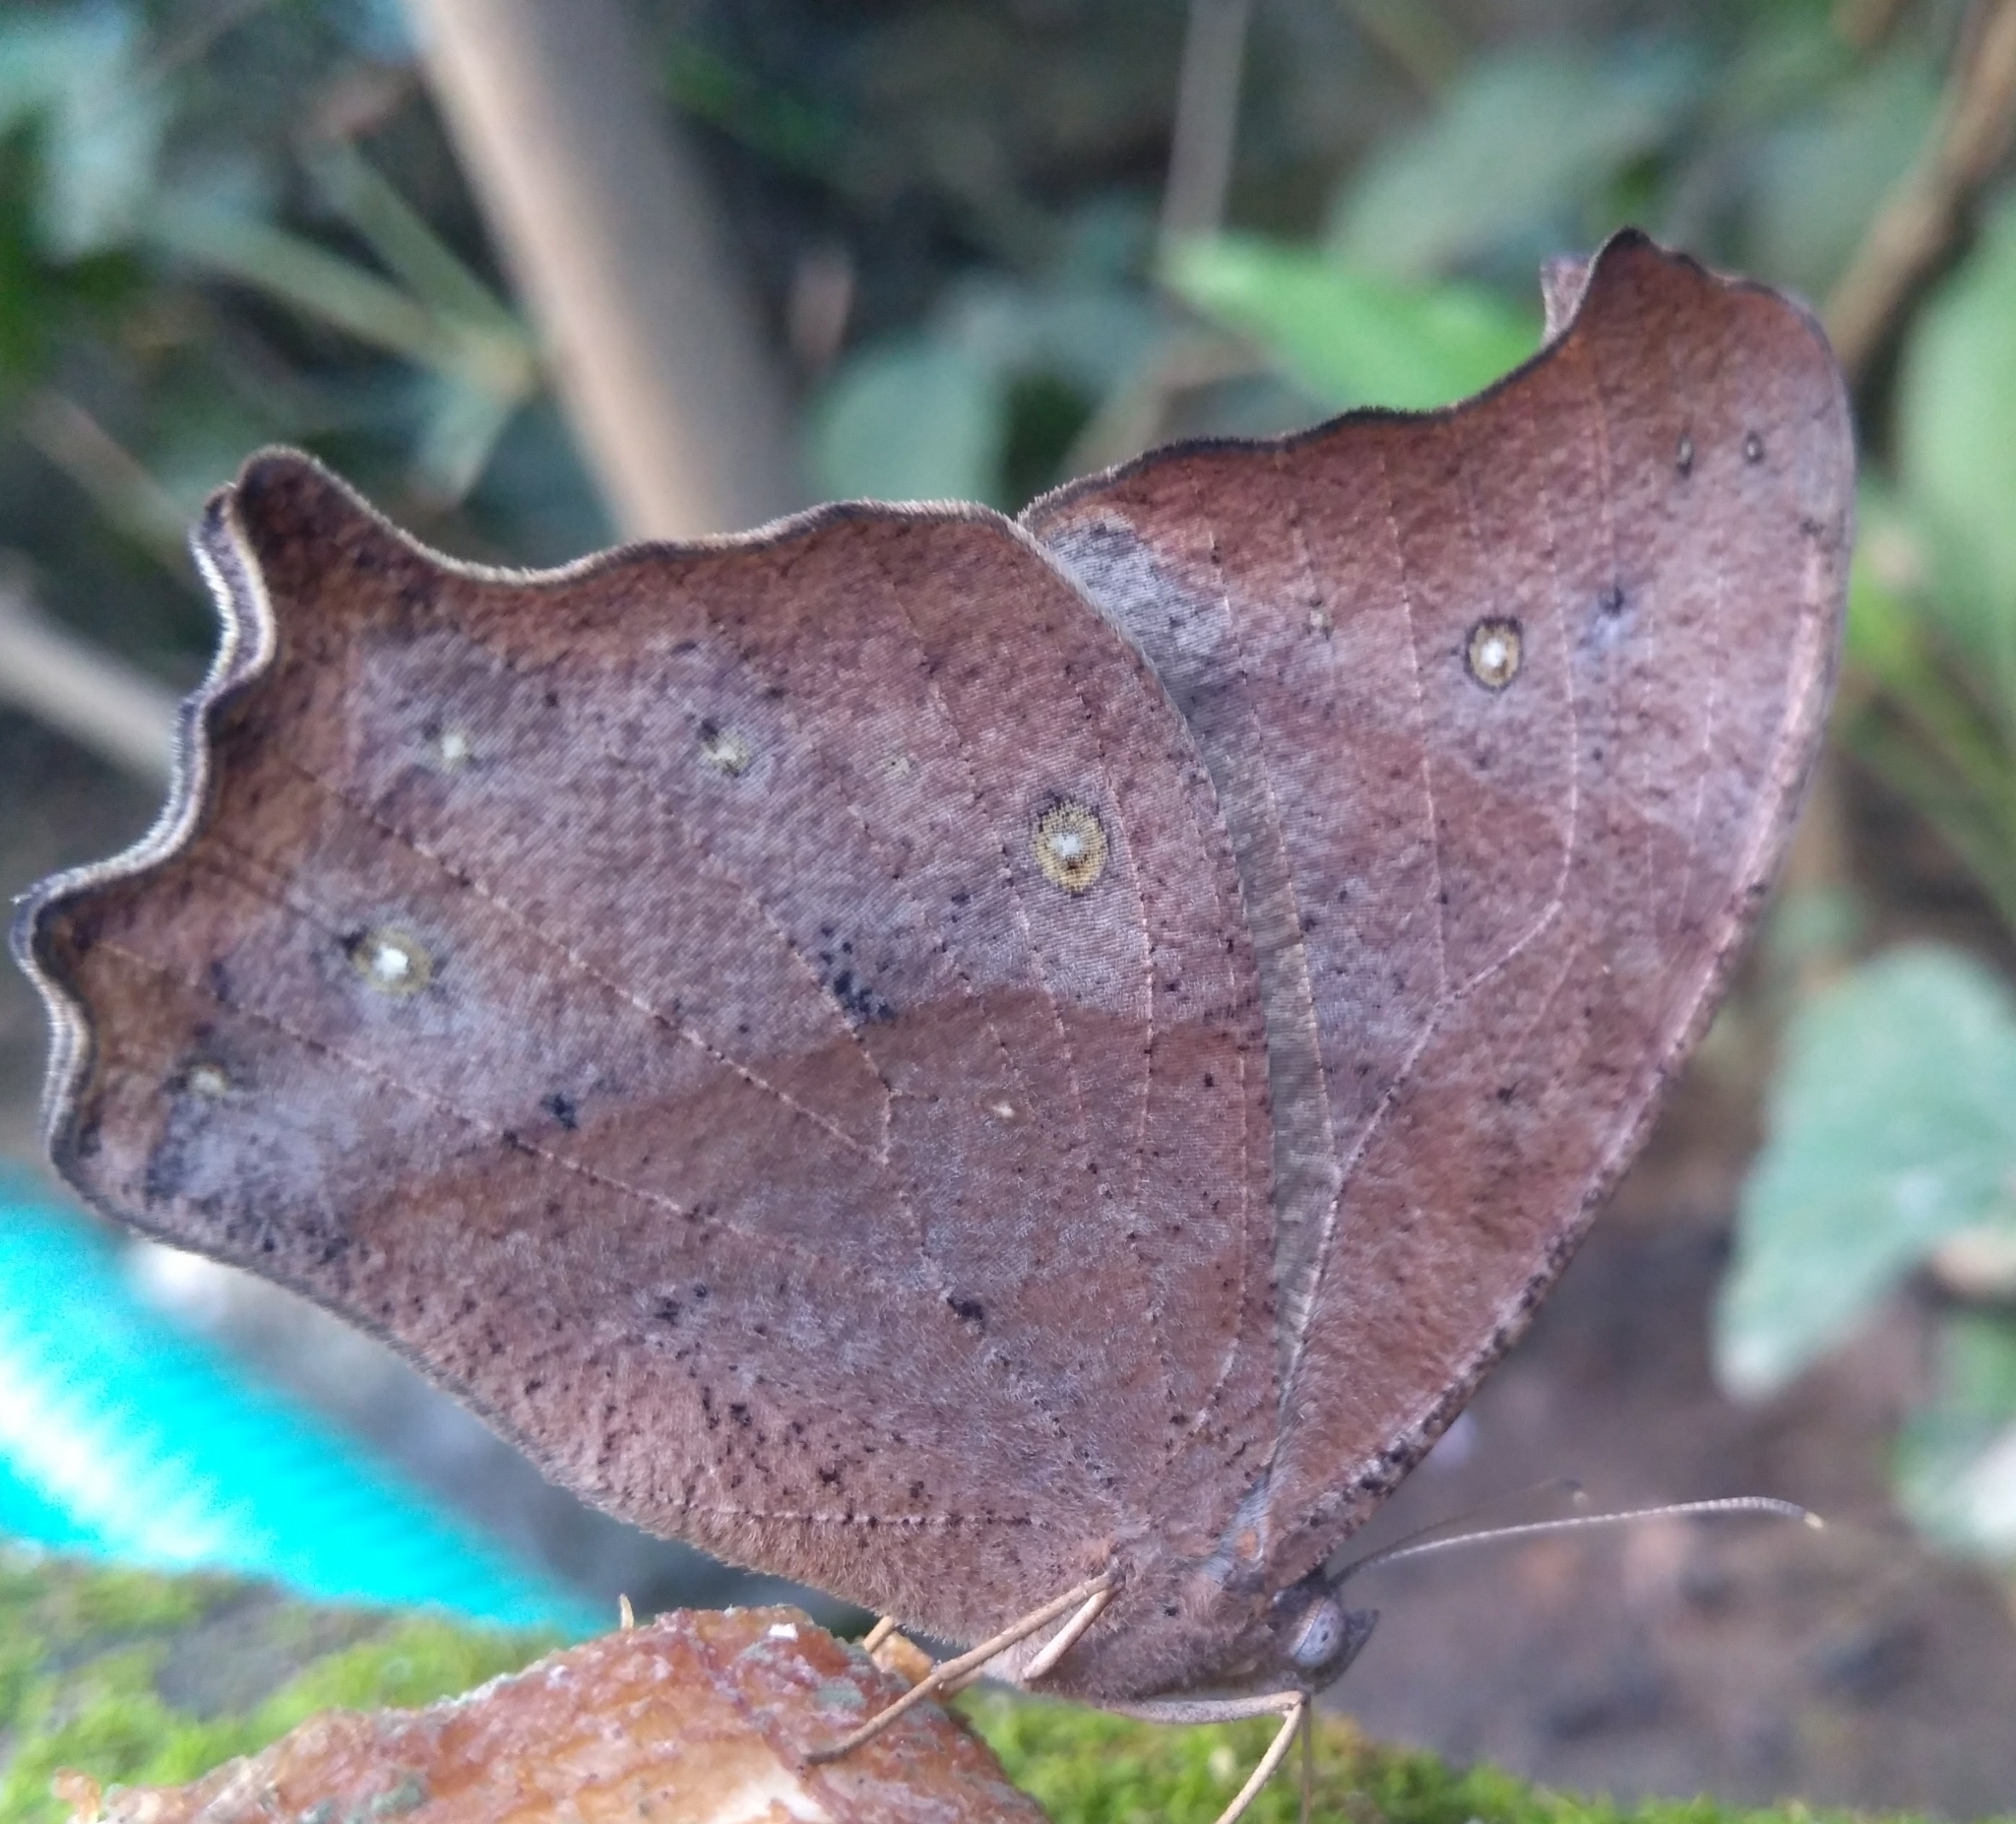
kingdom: Animalia
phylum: Arthropoda
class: Insecta
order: Lepidoptera
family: Nymphalidae
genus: Melanitis
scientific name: Melanitis leda
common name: Twilight brown
